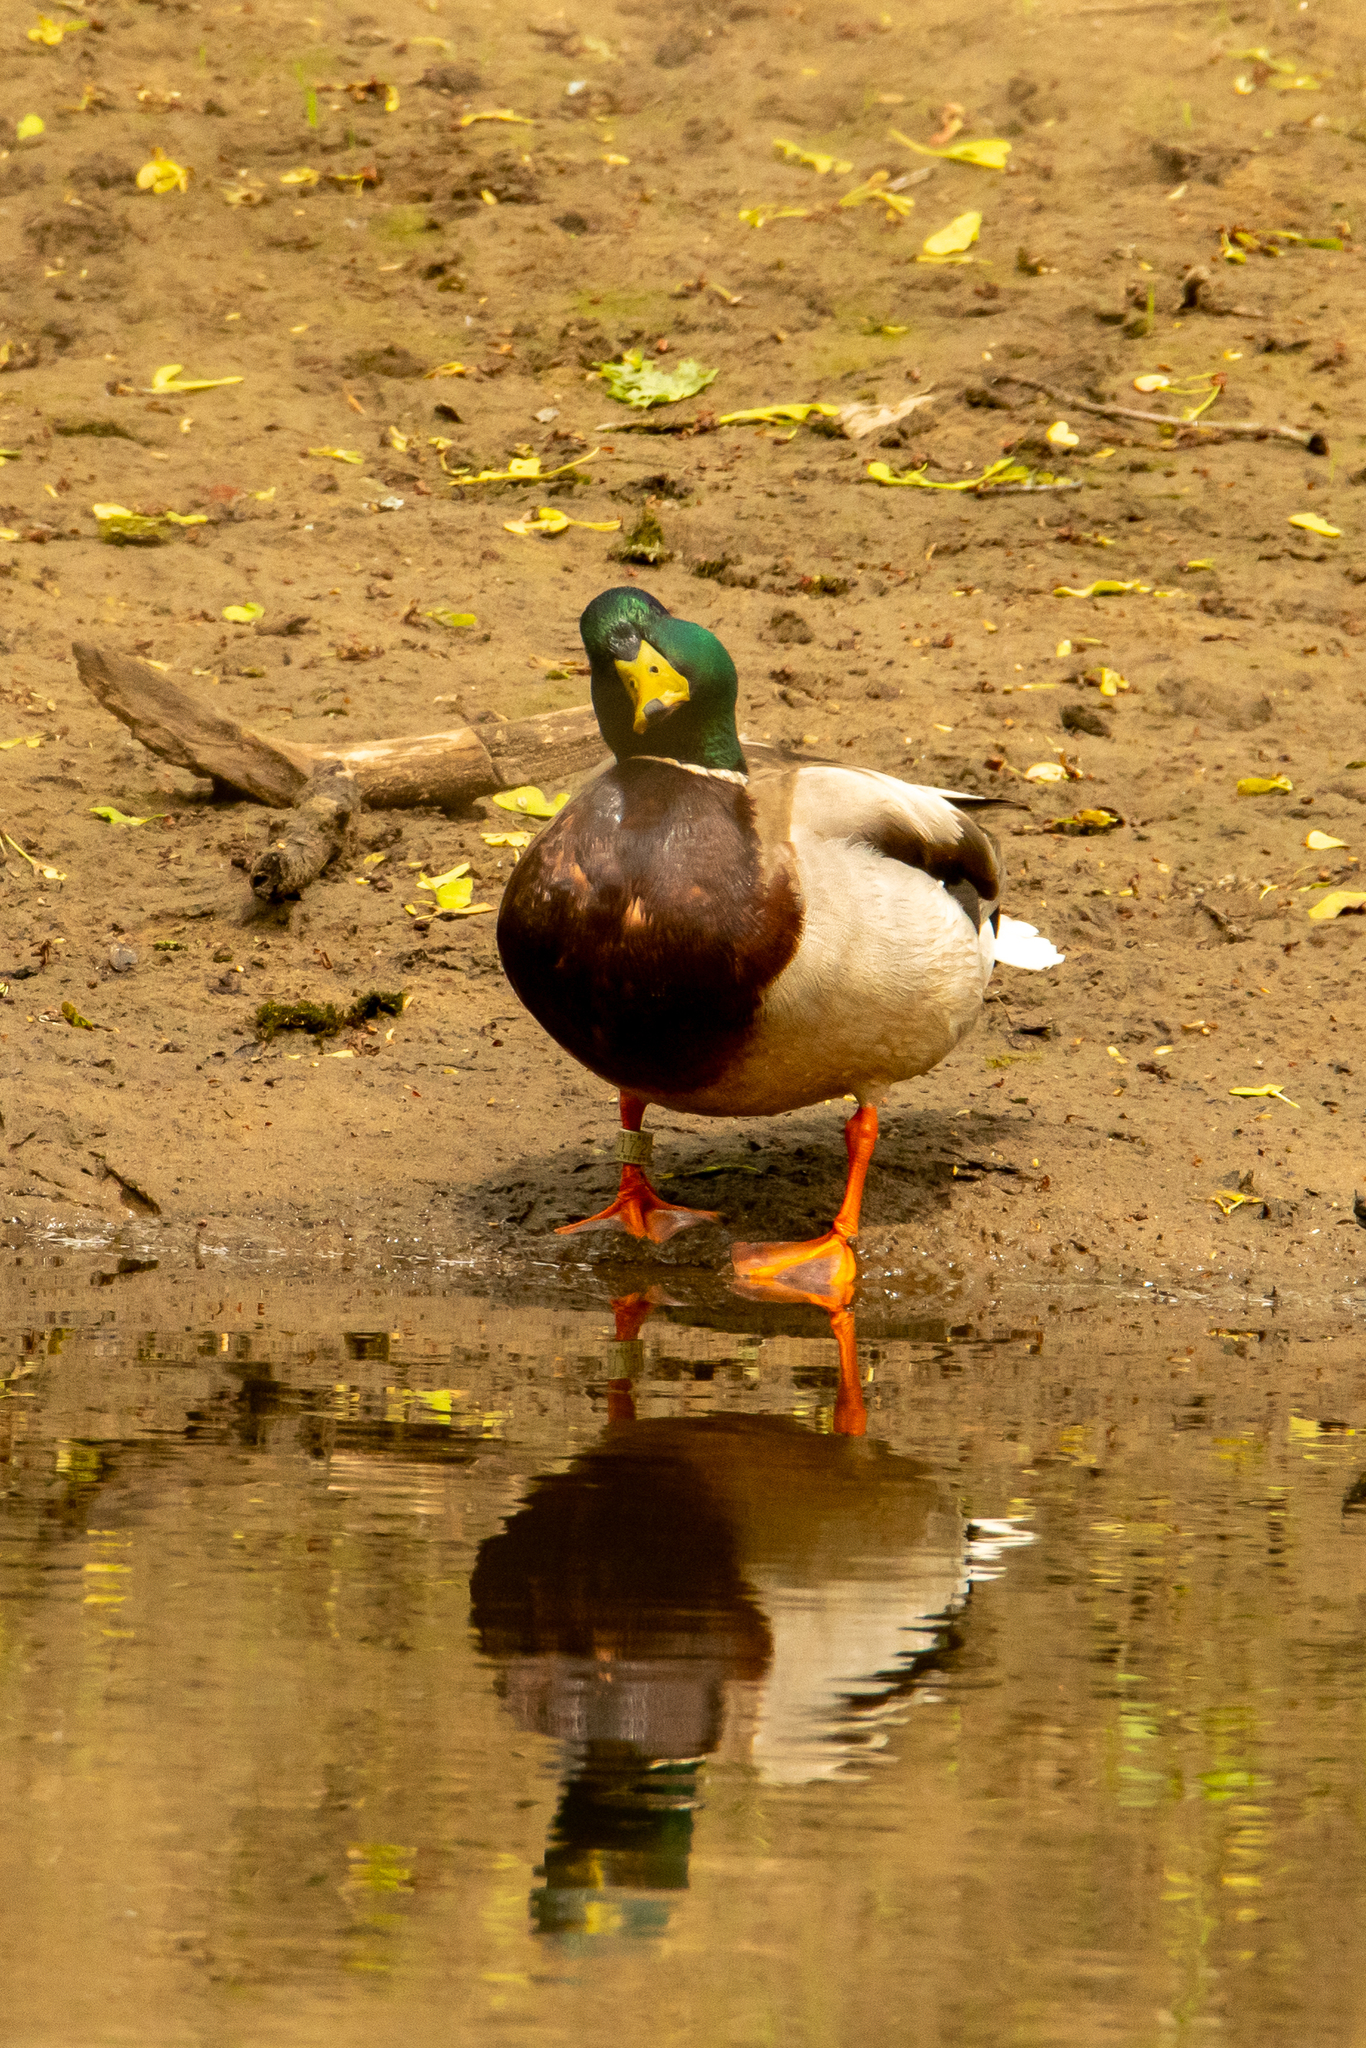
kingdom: Animalia
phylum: Chordata
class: Aves
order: Anseriformes
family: Anatidae
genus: Anas
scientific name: Anas platyrhynchos
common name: Mallard
